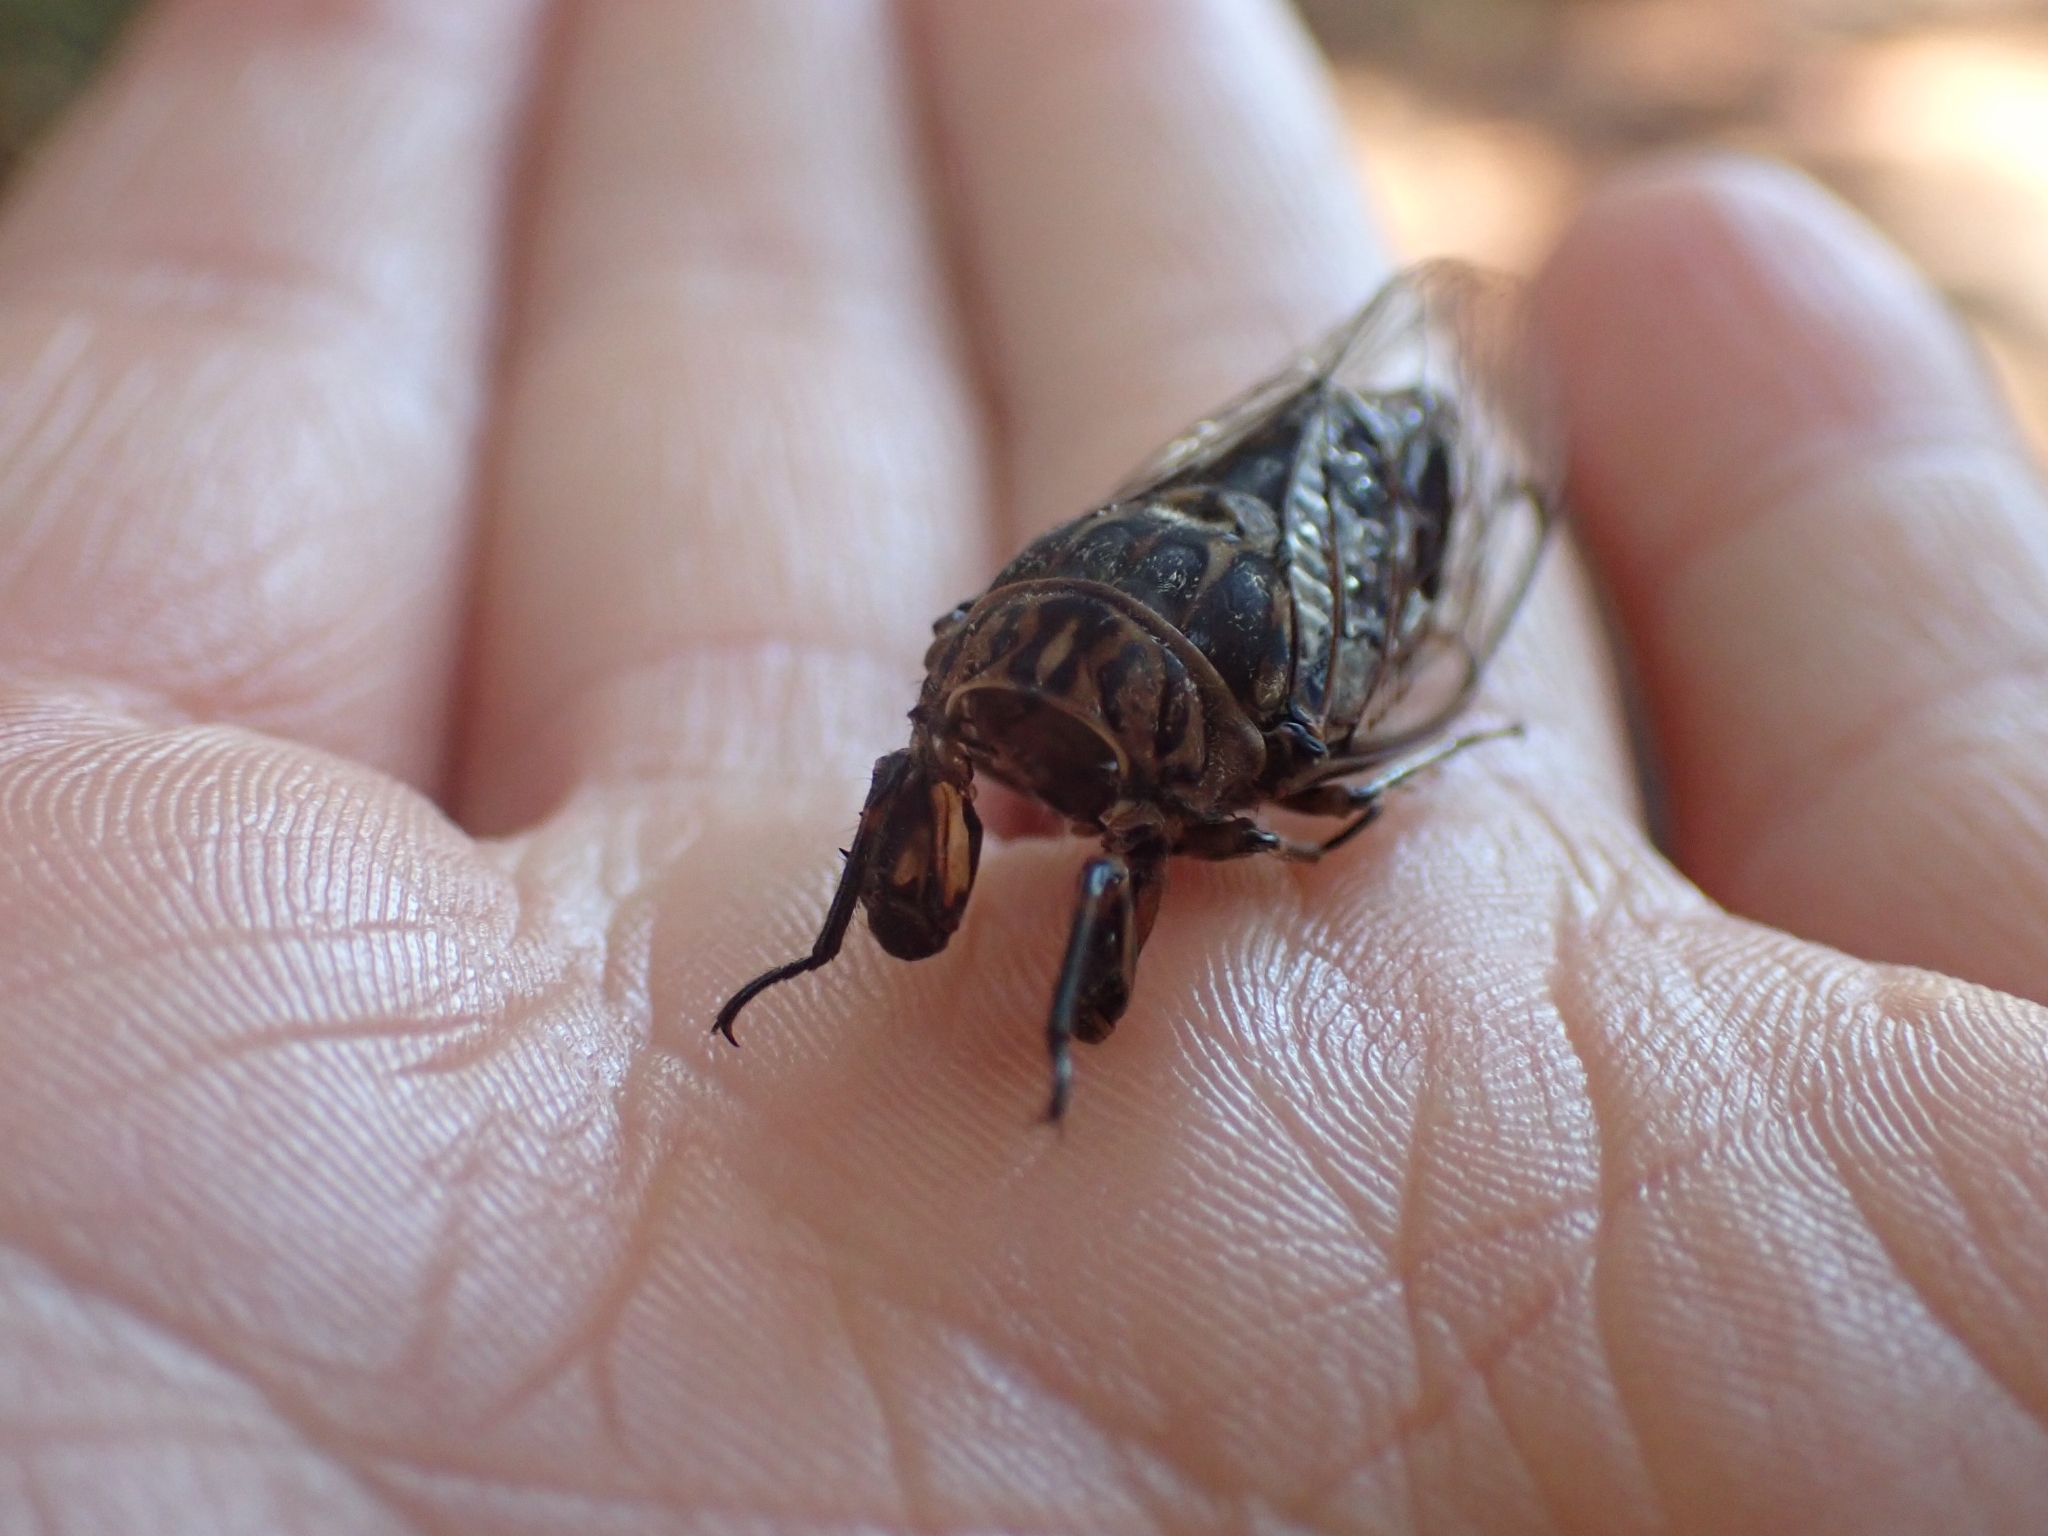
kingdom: Animalia
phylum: Arthropoda
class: Insecta
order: Hemiptera
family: Cicadidae
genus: Amphipsalta
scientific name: Amphipsalta zelandica
